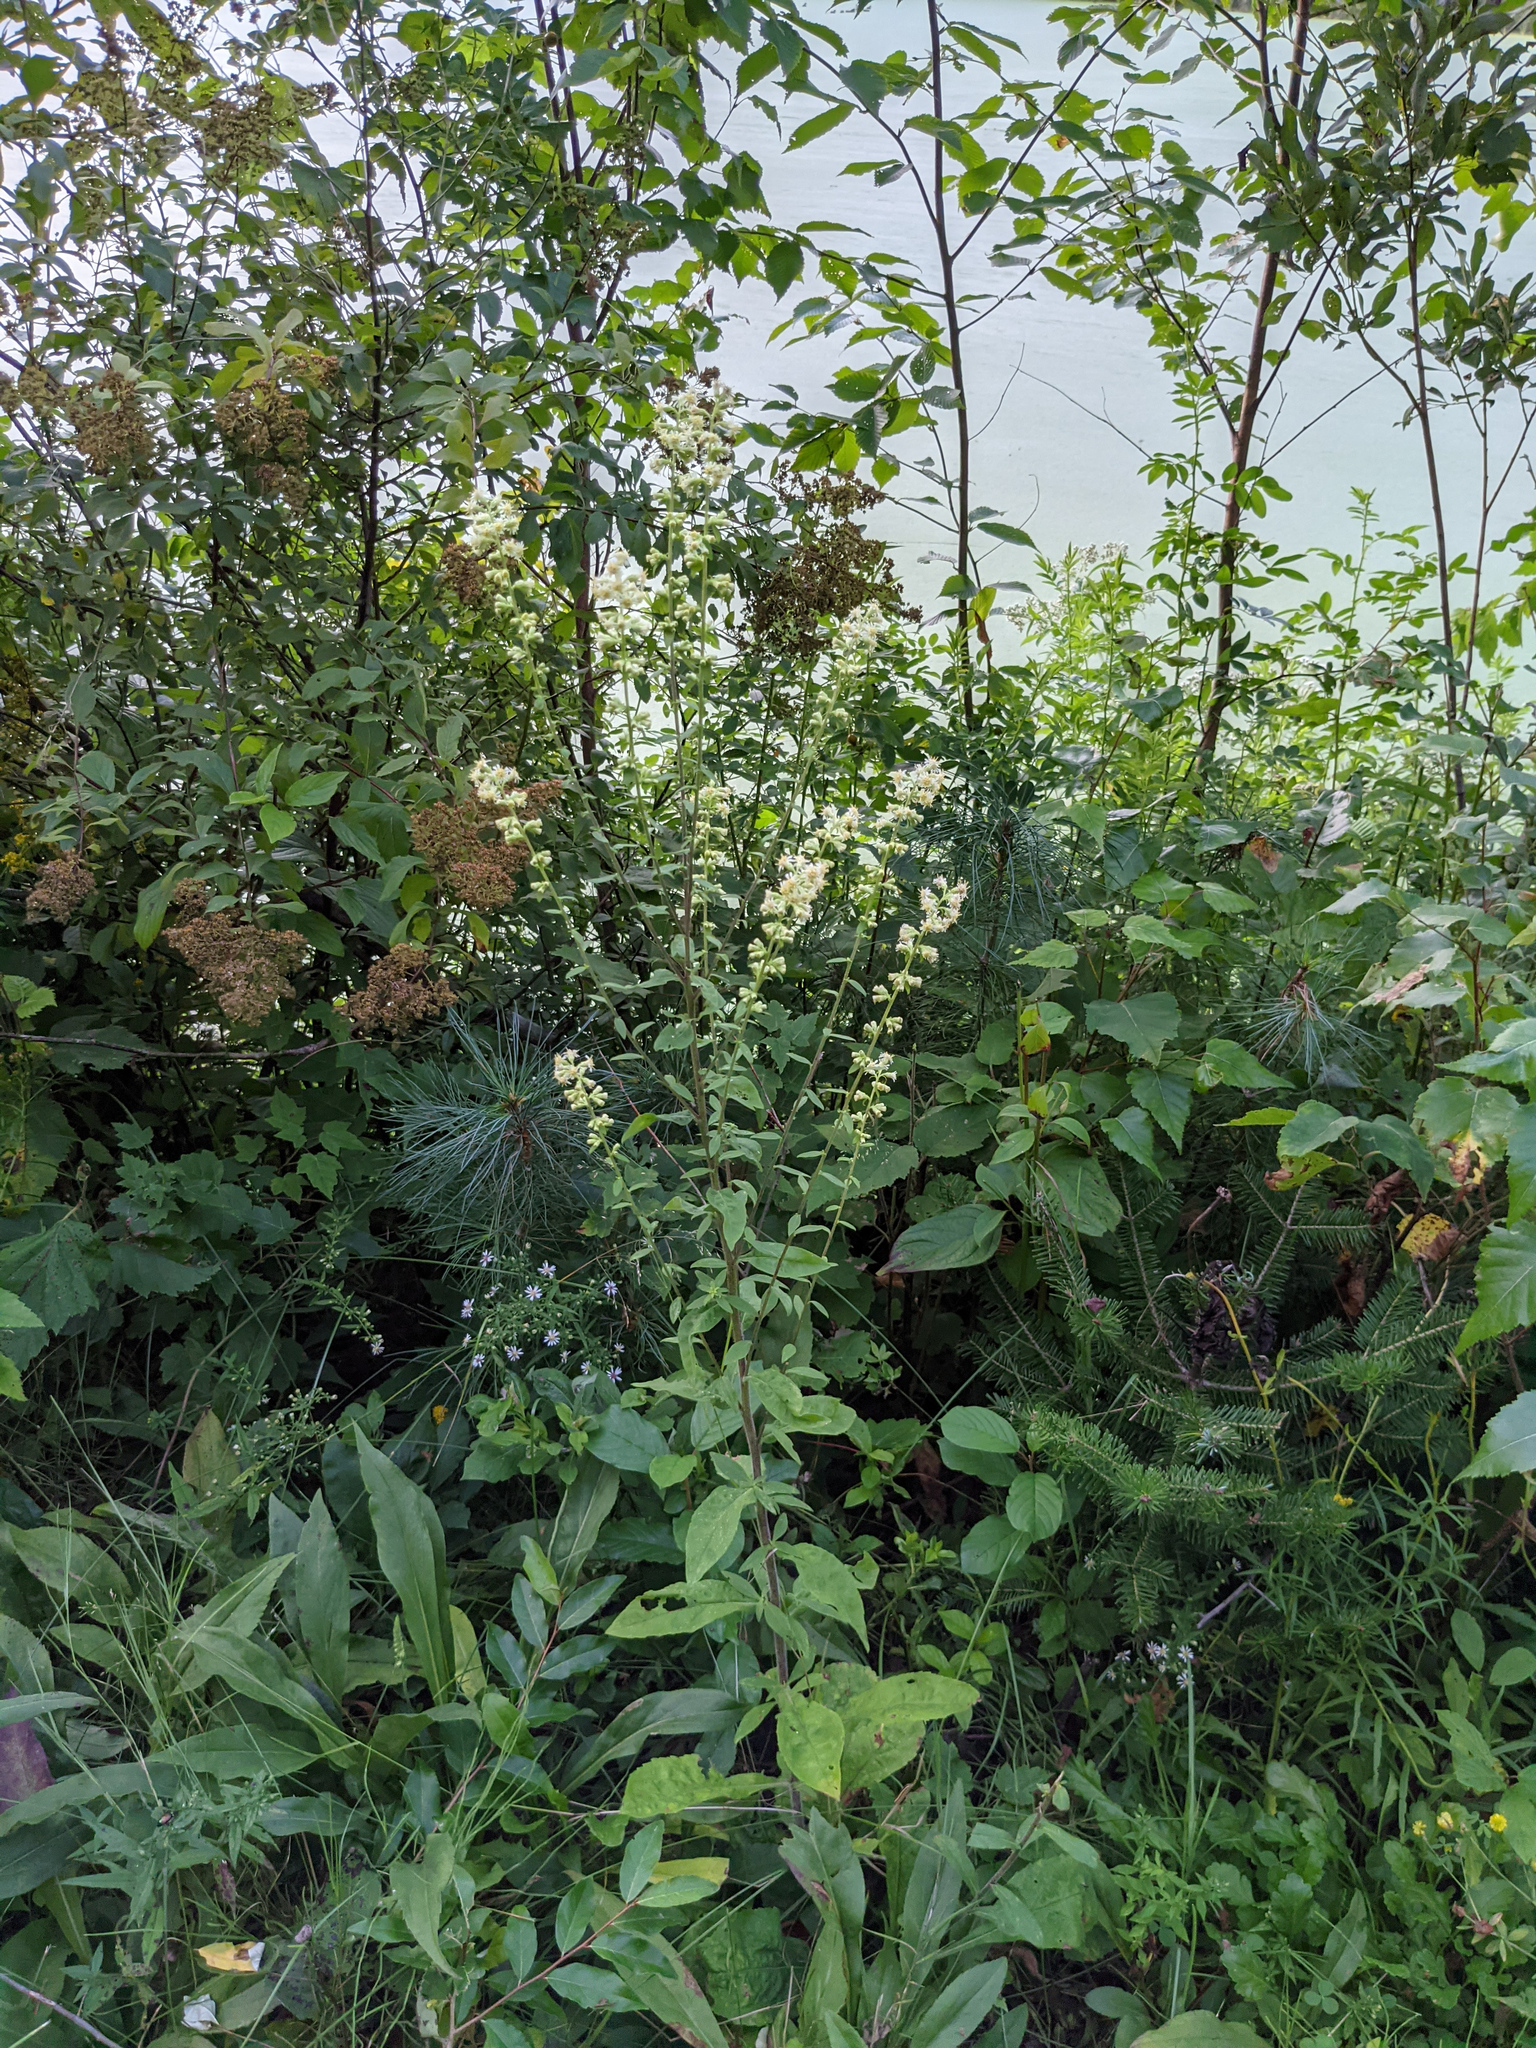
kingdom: Plantae
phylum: Tracheophyta
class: Magnoliopsida
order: Asterales
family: Asteraceae
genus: Solidago
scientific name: Solidago bicolor
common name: Silverrod
